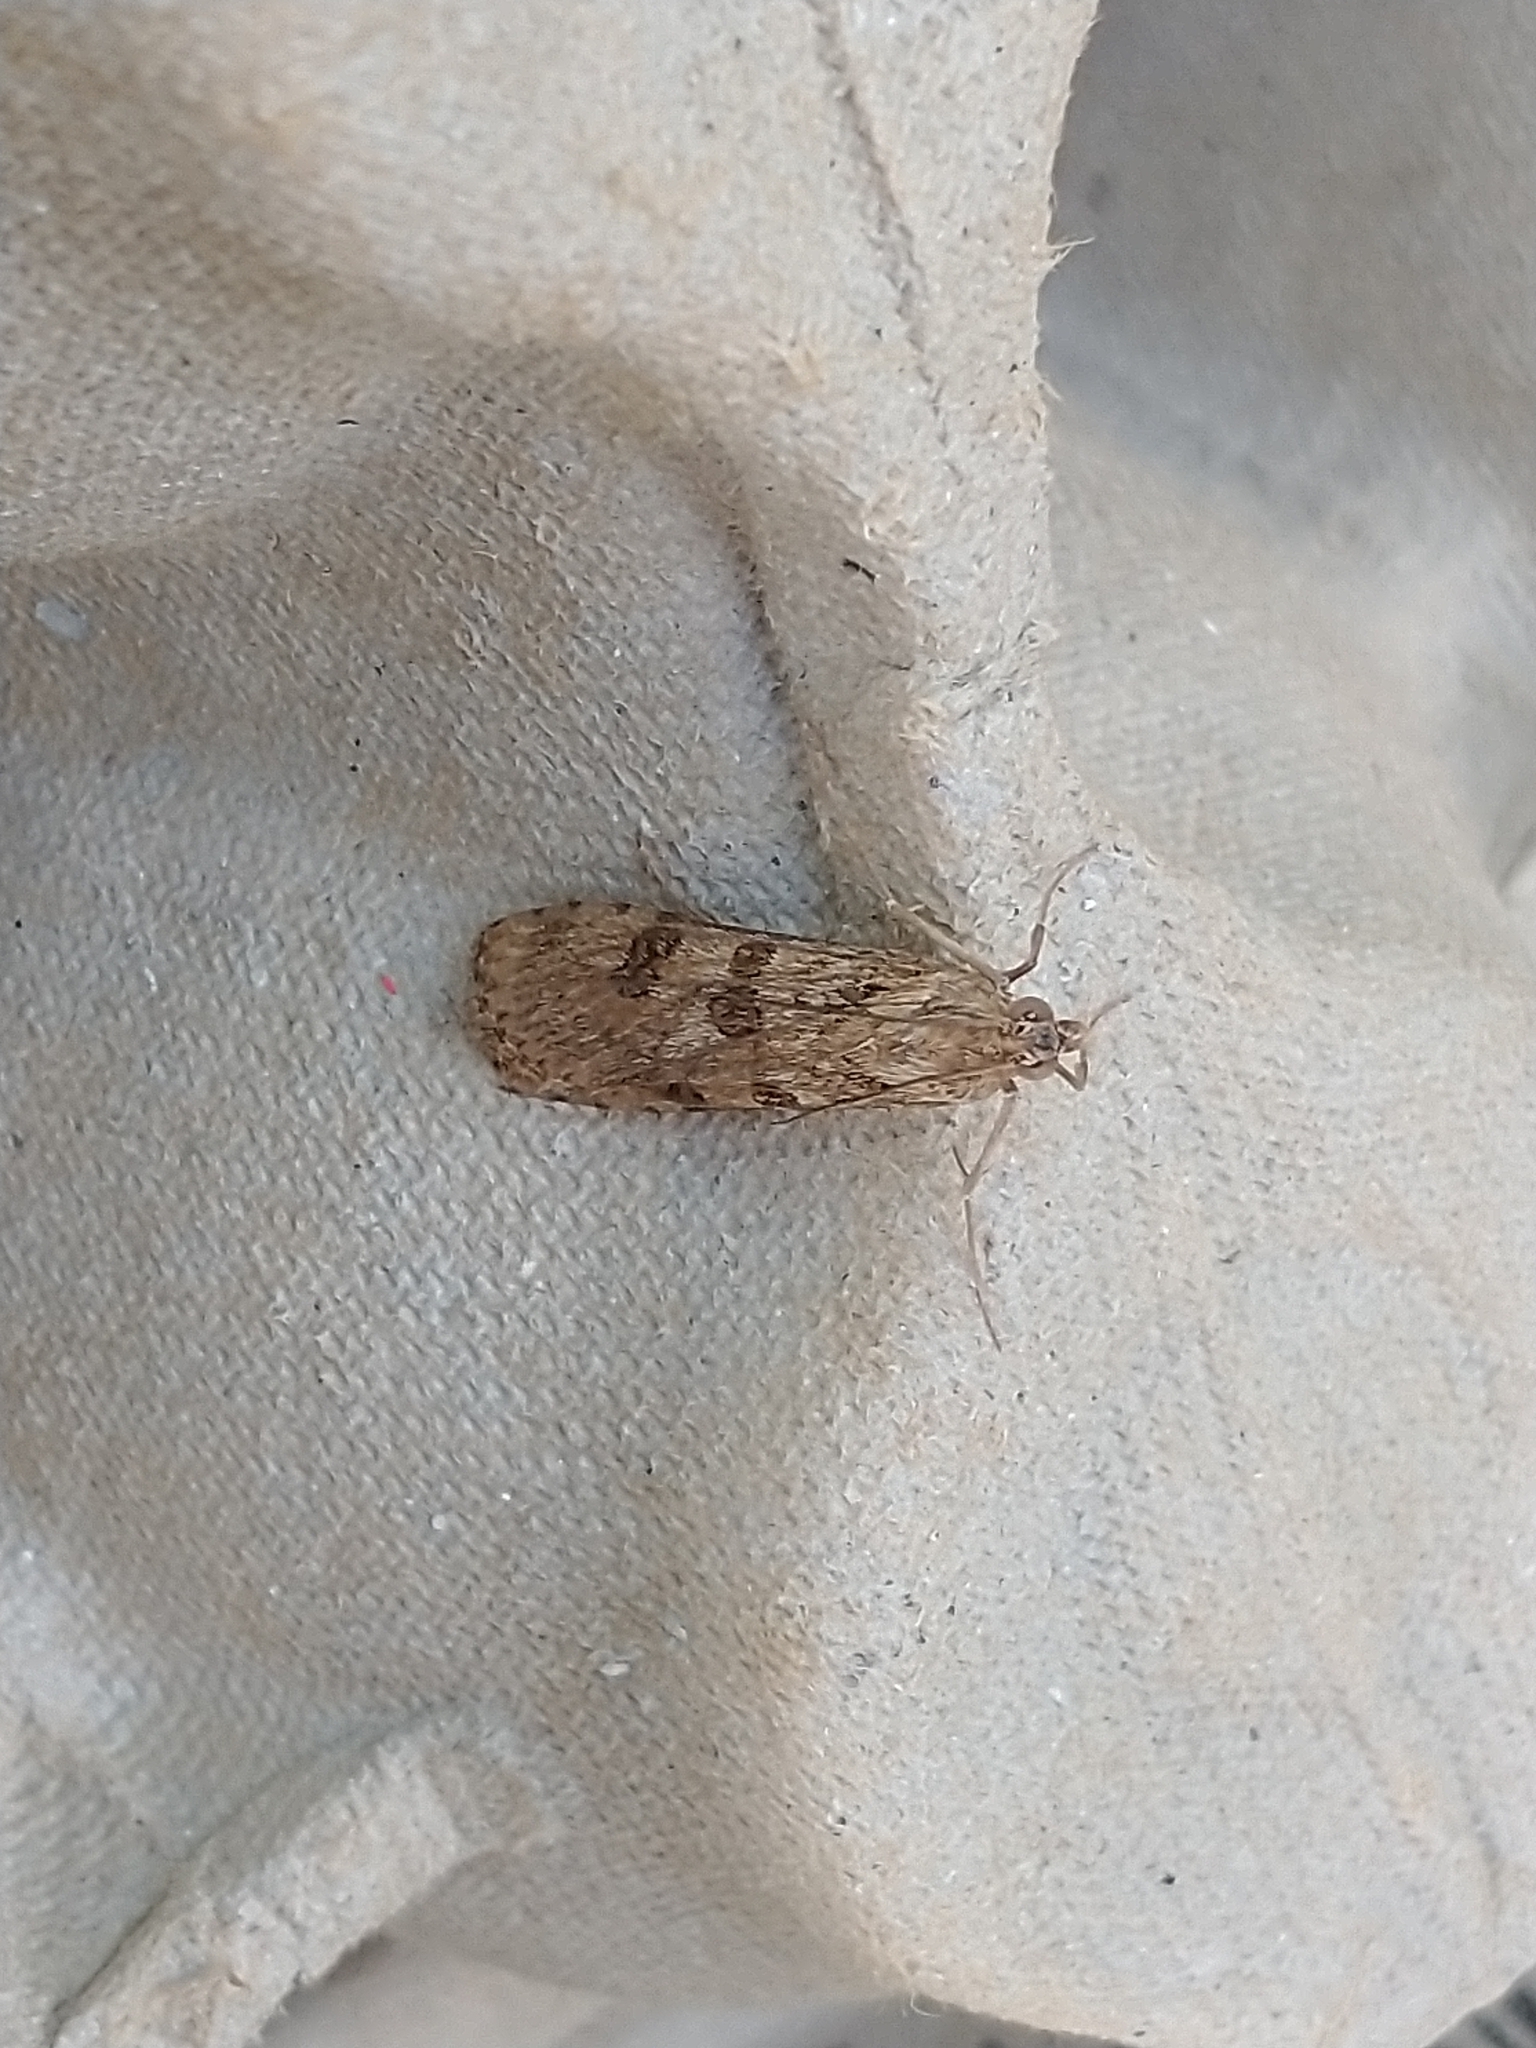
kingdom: Animalia
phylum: Arthropoda
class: Insecta
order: Lepidoptera
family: Crambidae
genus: Nomophila
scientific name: Nomophila noctuella
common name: Rush veneer
